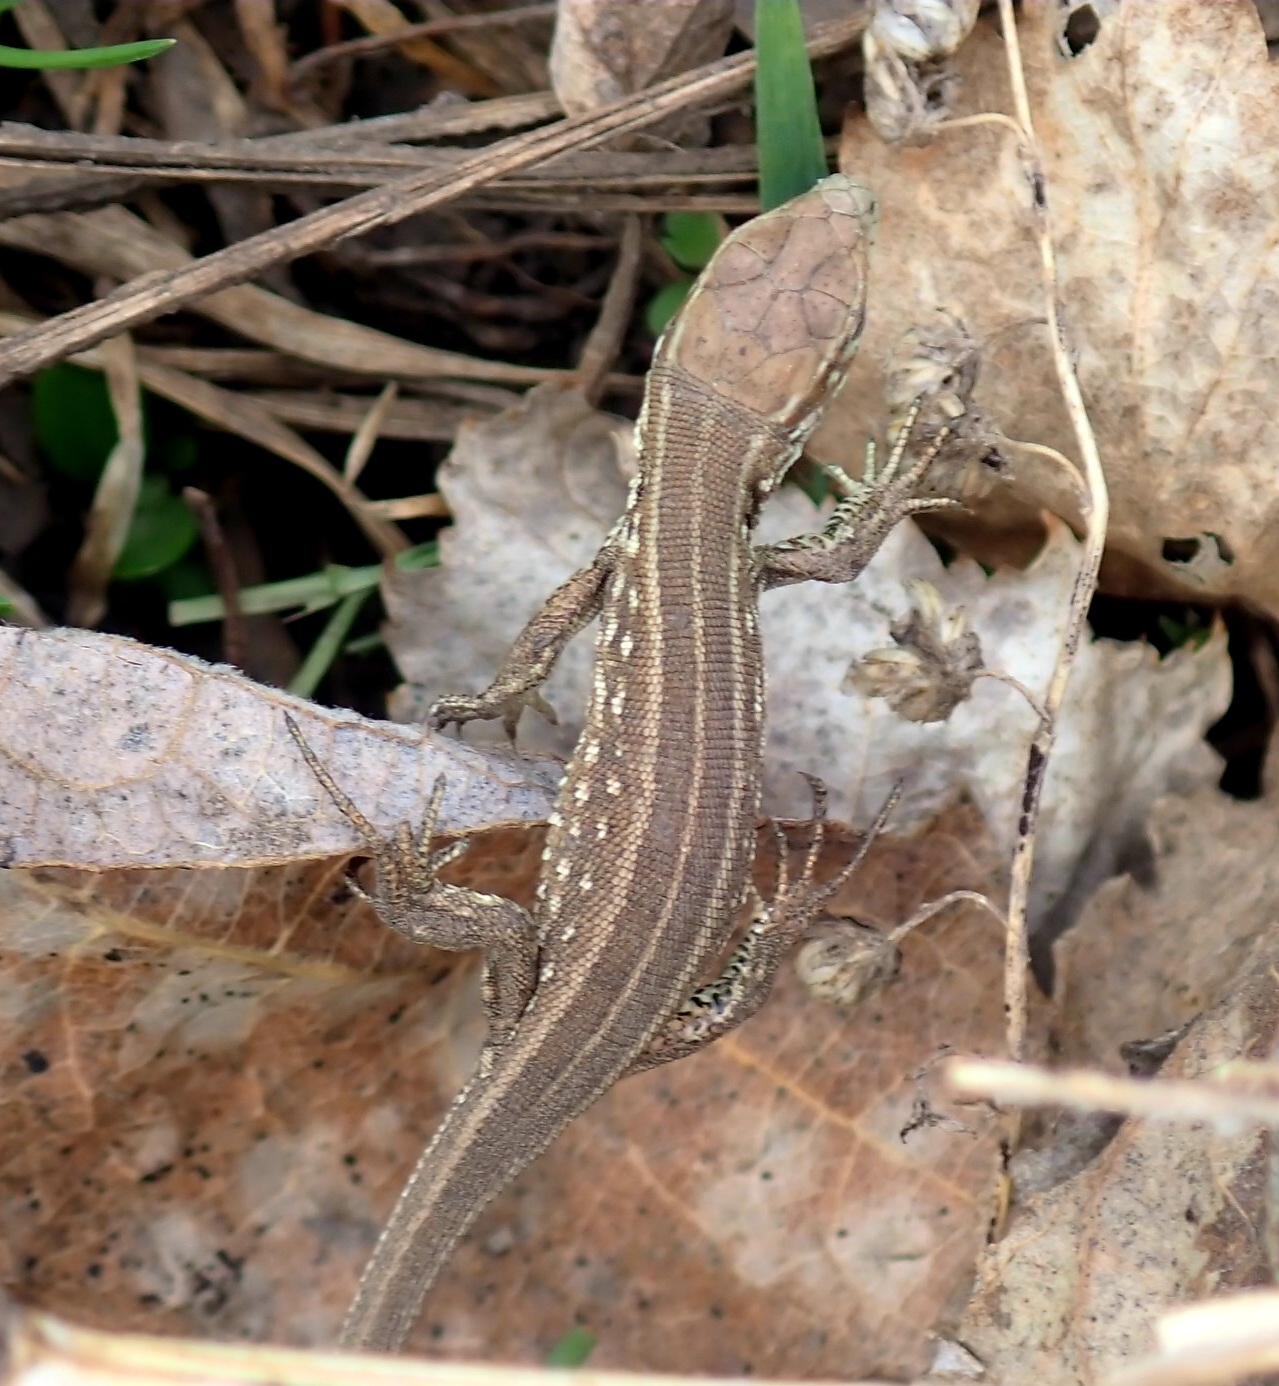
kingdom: Animalia
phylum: Chordata
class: Squamata
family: Lacertidae
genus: Lacerta
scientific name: Lacerta agilis
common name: Sand lizard
